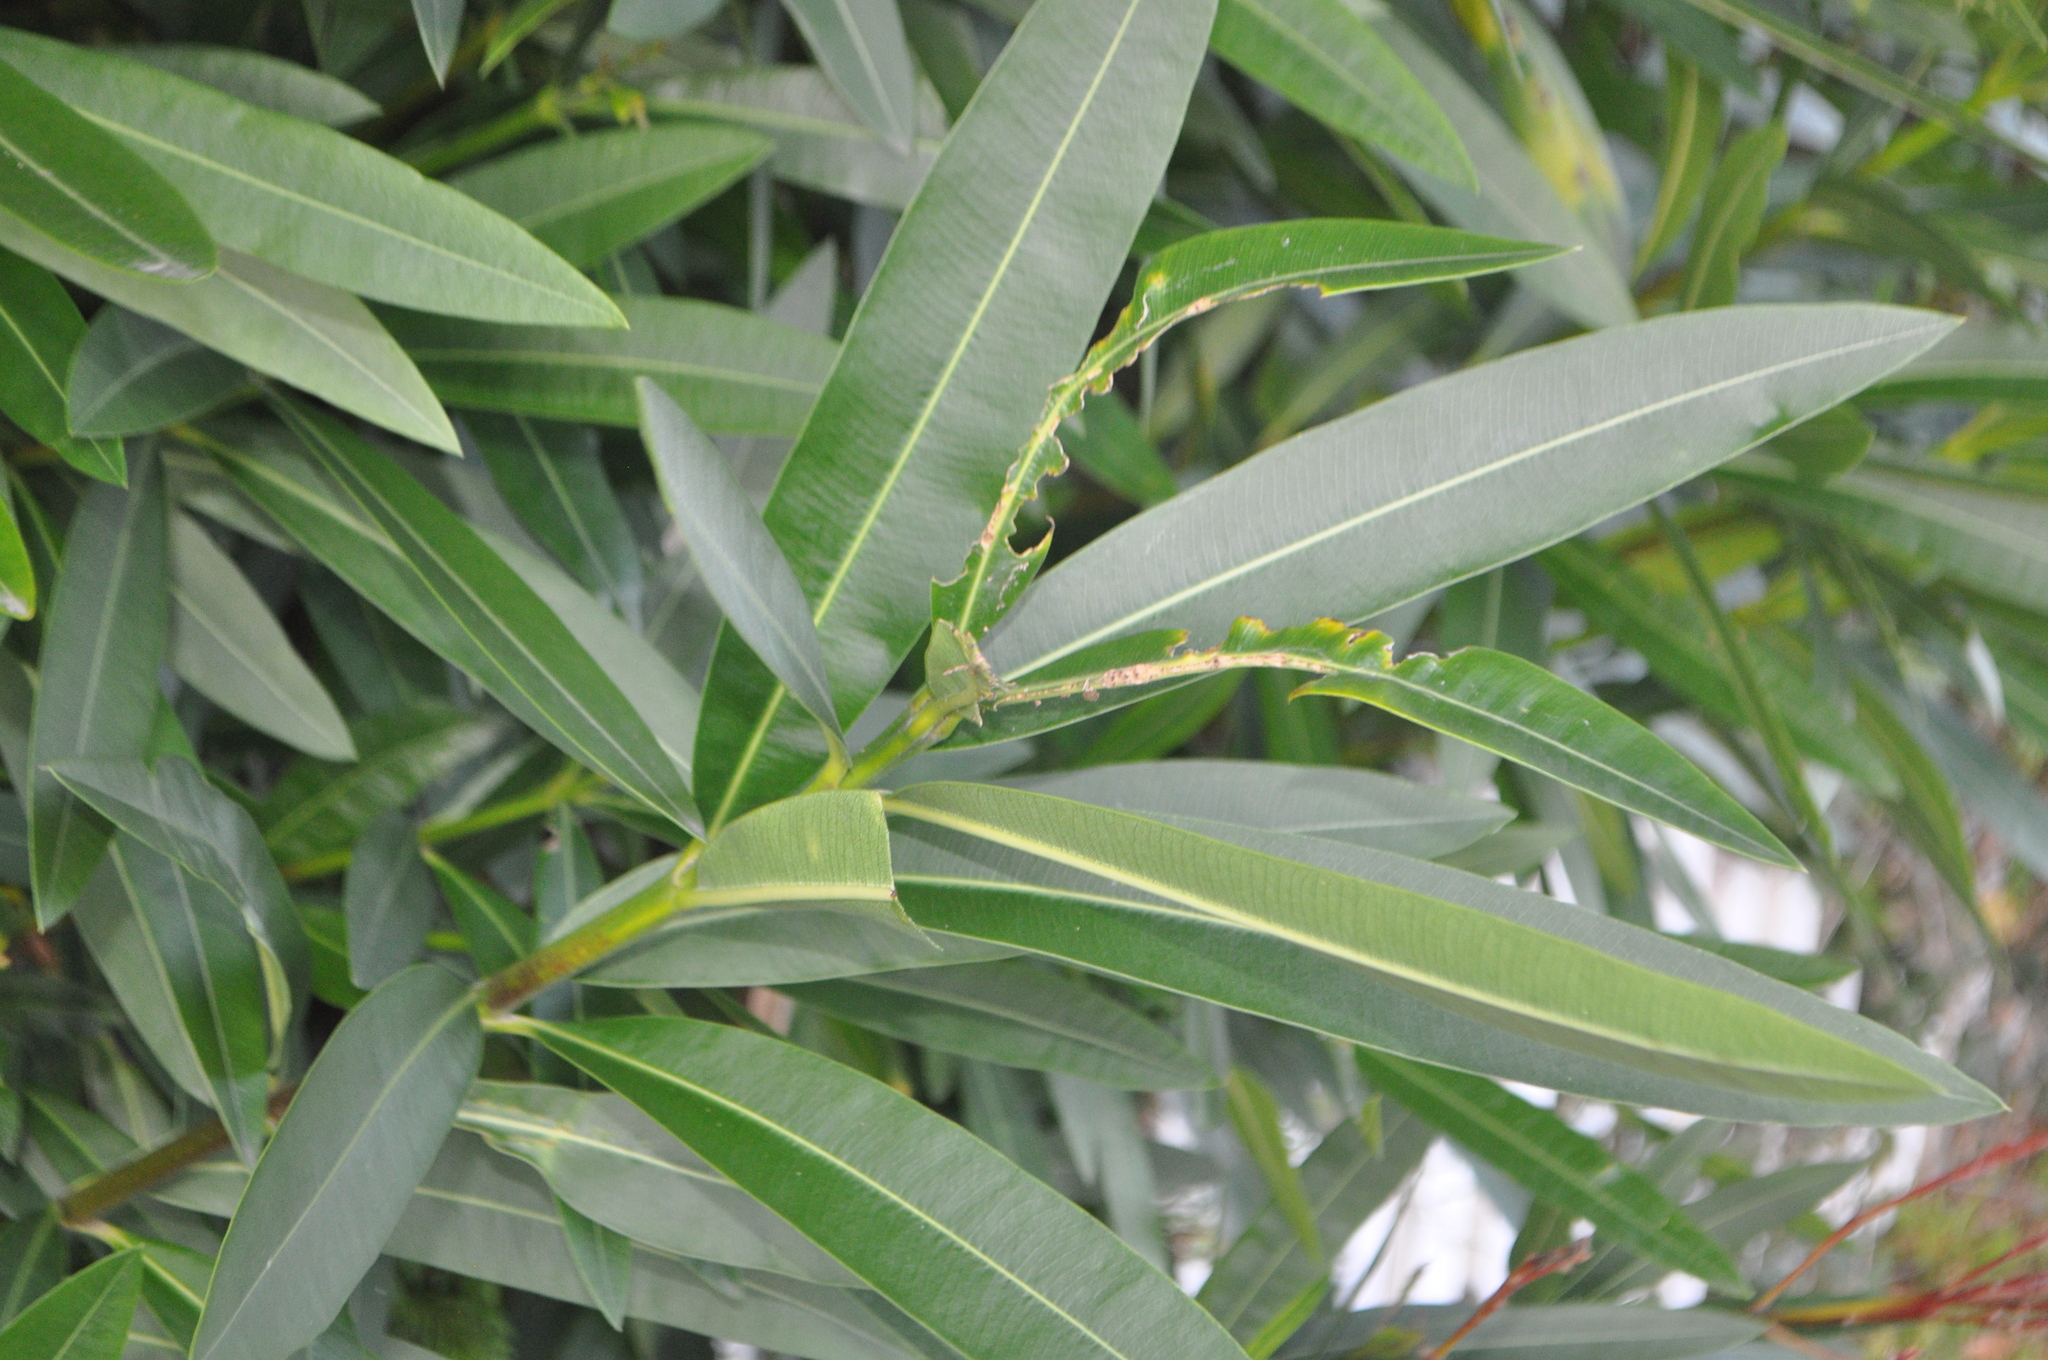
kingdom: Plantae
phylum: Tracheophyta
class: Magnoliopsida
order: Gentianales
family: Apocynaceae
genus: Nerium
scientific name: Nerium oleander
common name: Oleander
